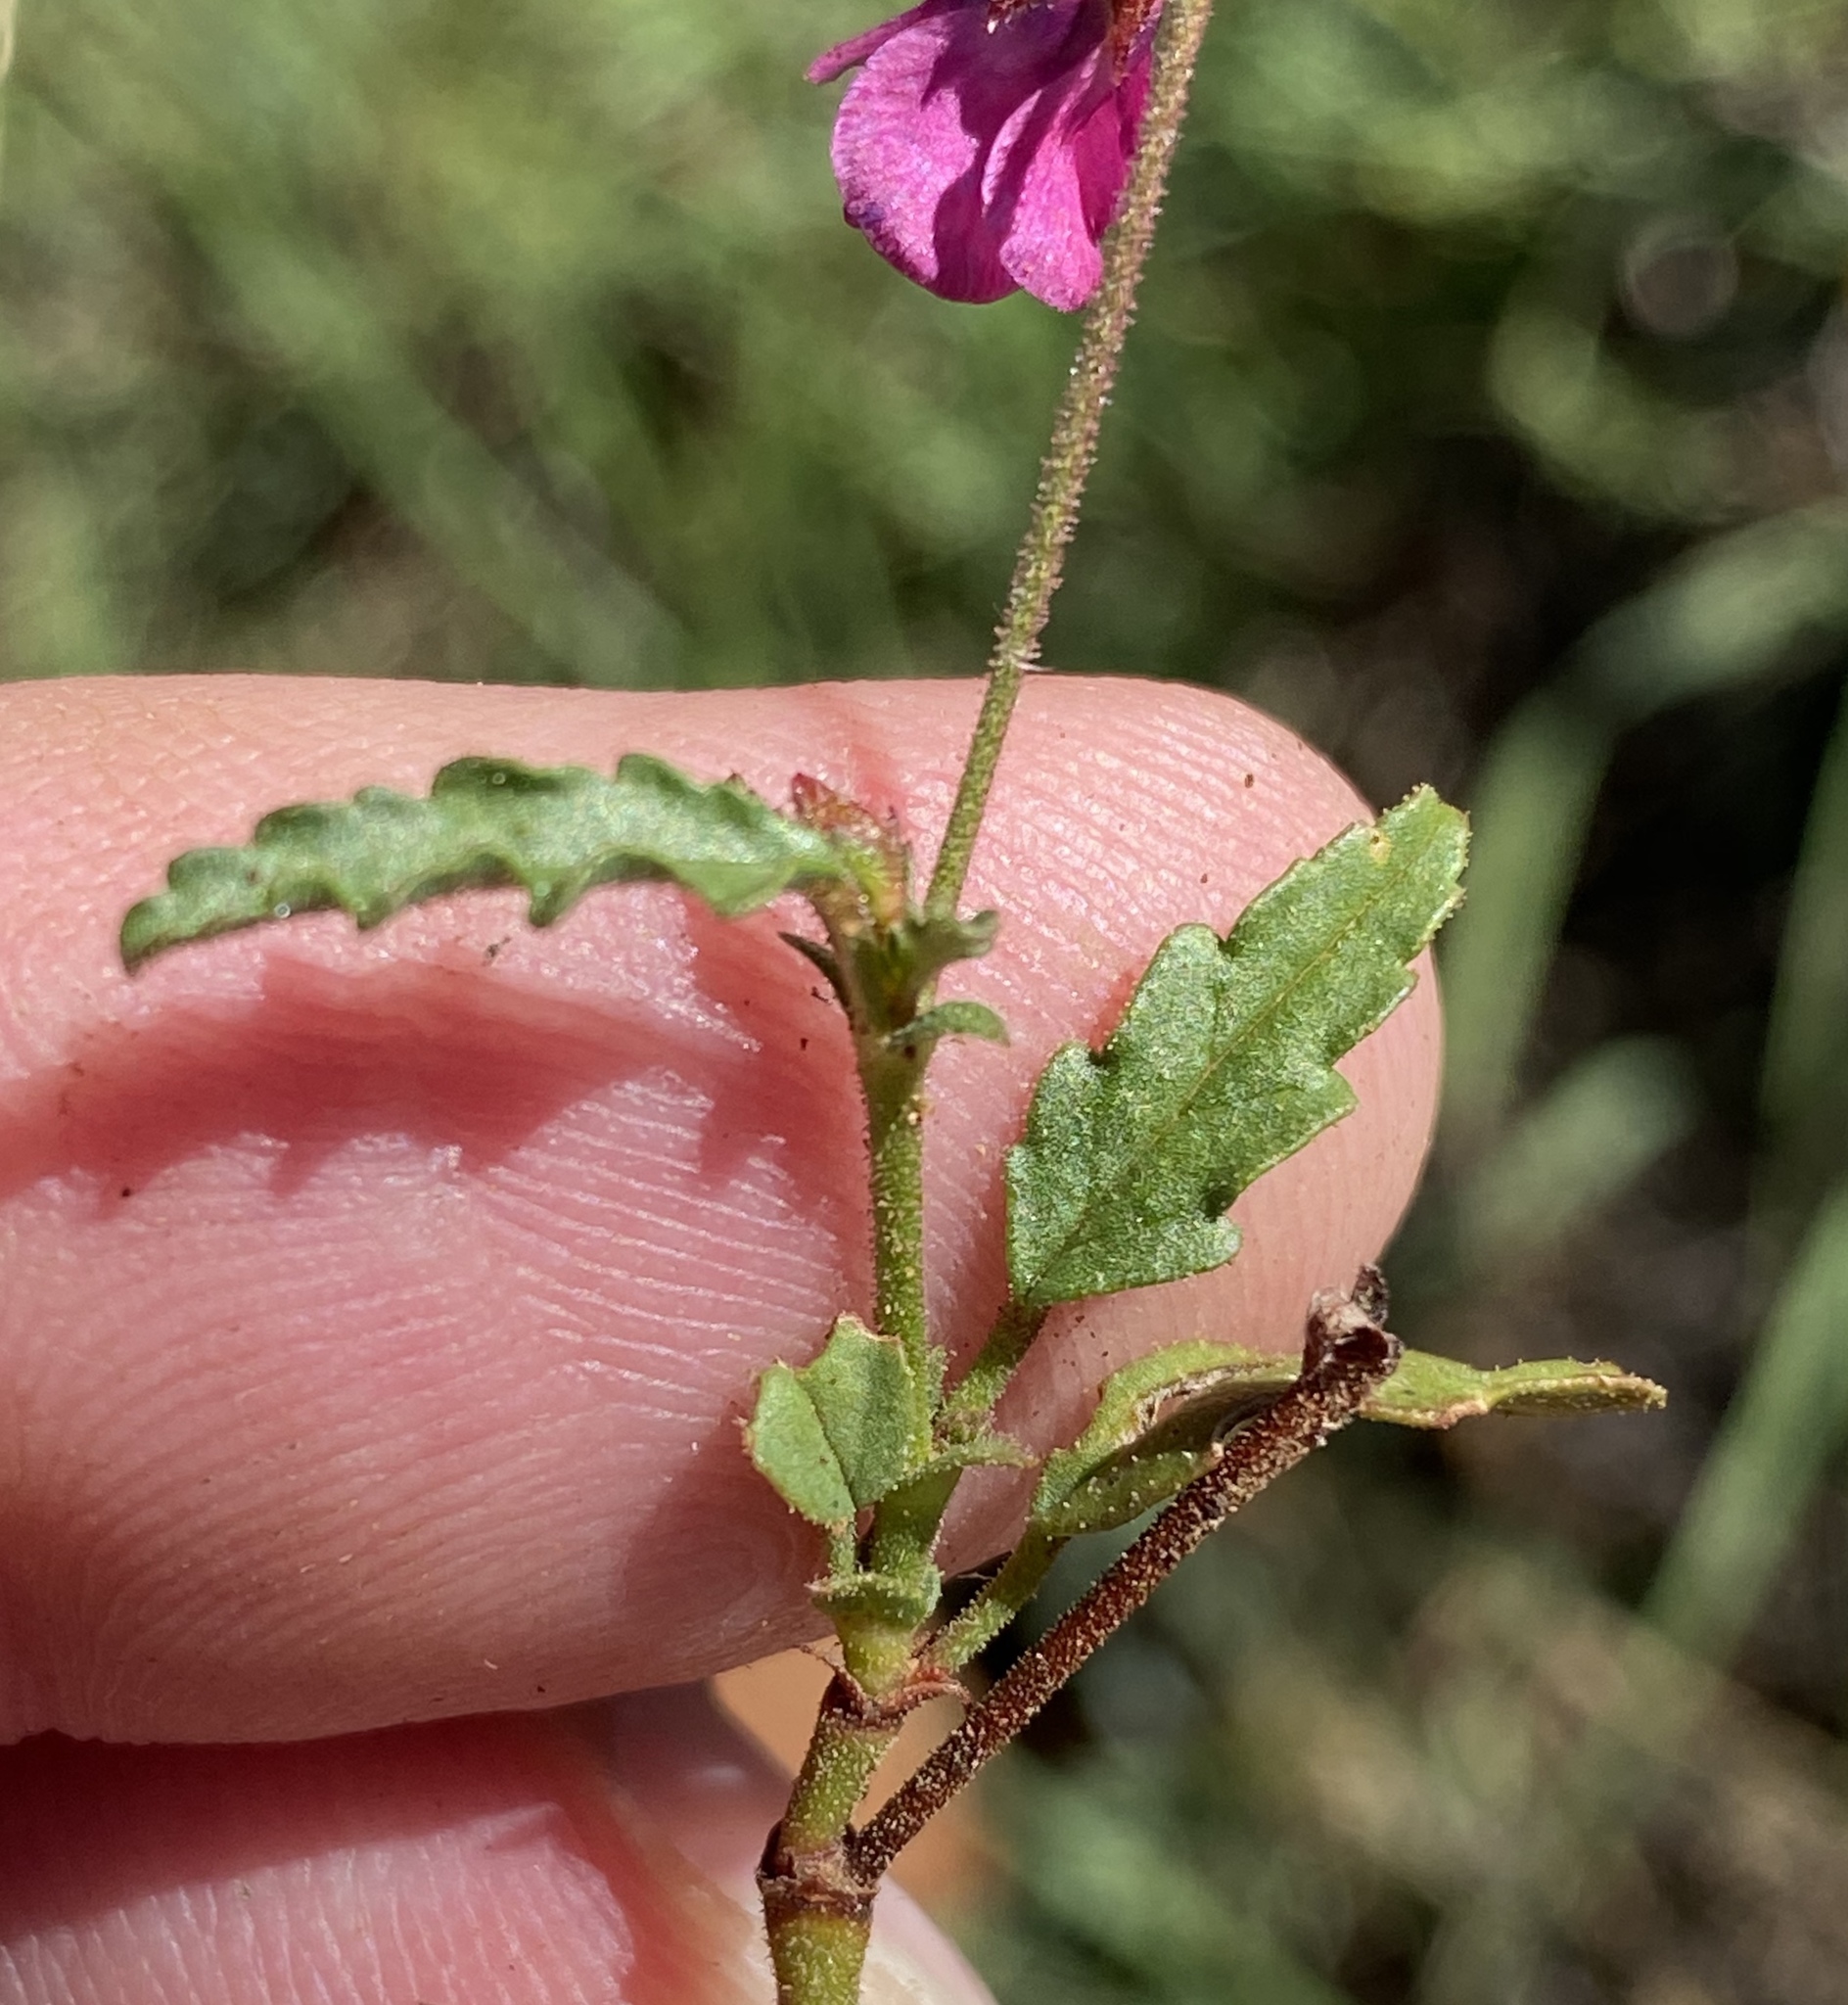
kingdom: Plantae
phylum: Tracheophyta
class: Magnoliopsida
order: Malvales
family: Malvaceae
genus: Hermannia
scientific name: Hermannia coccocarpa
